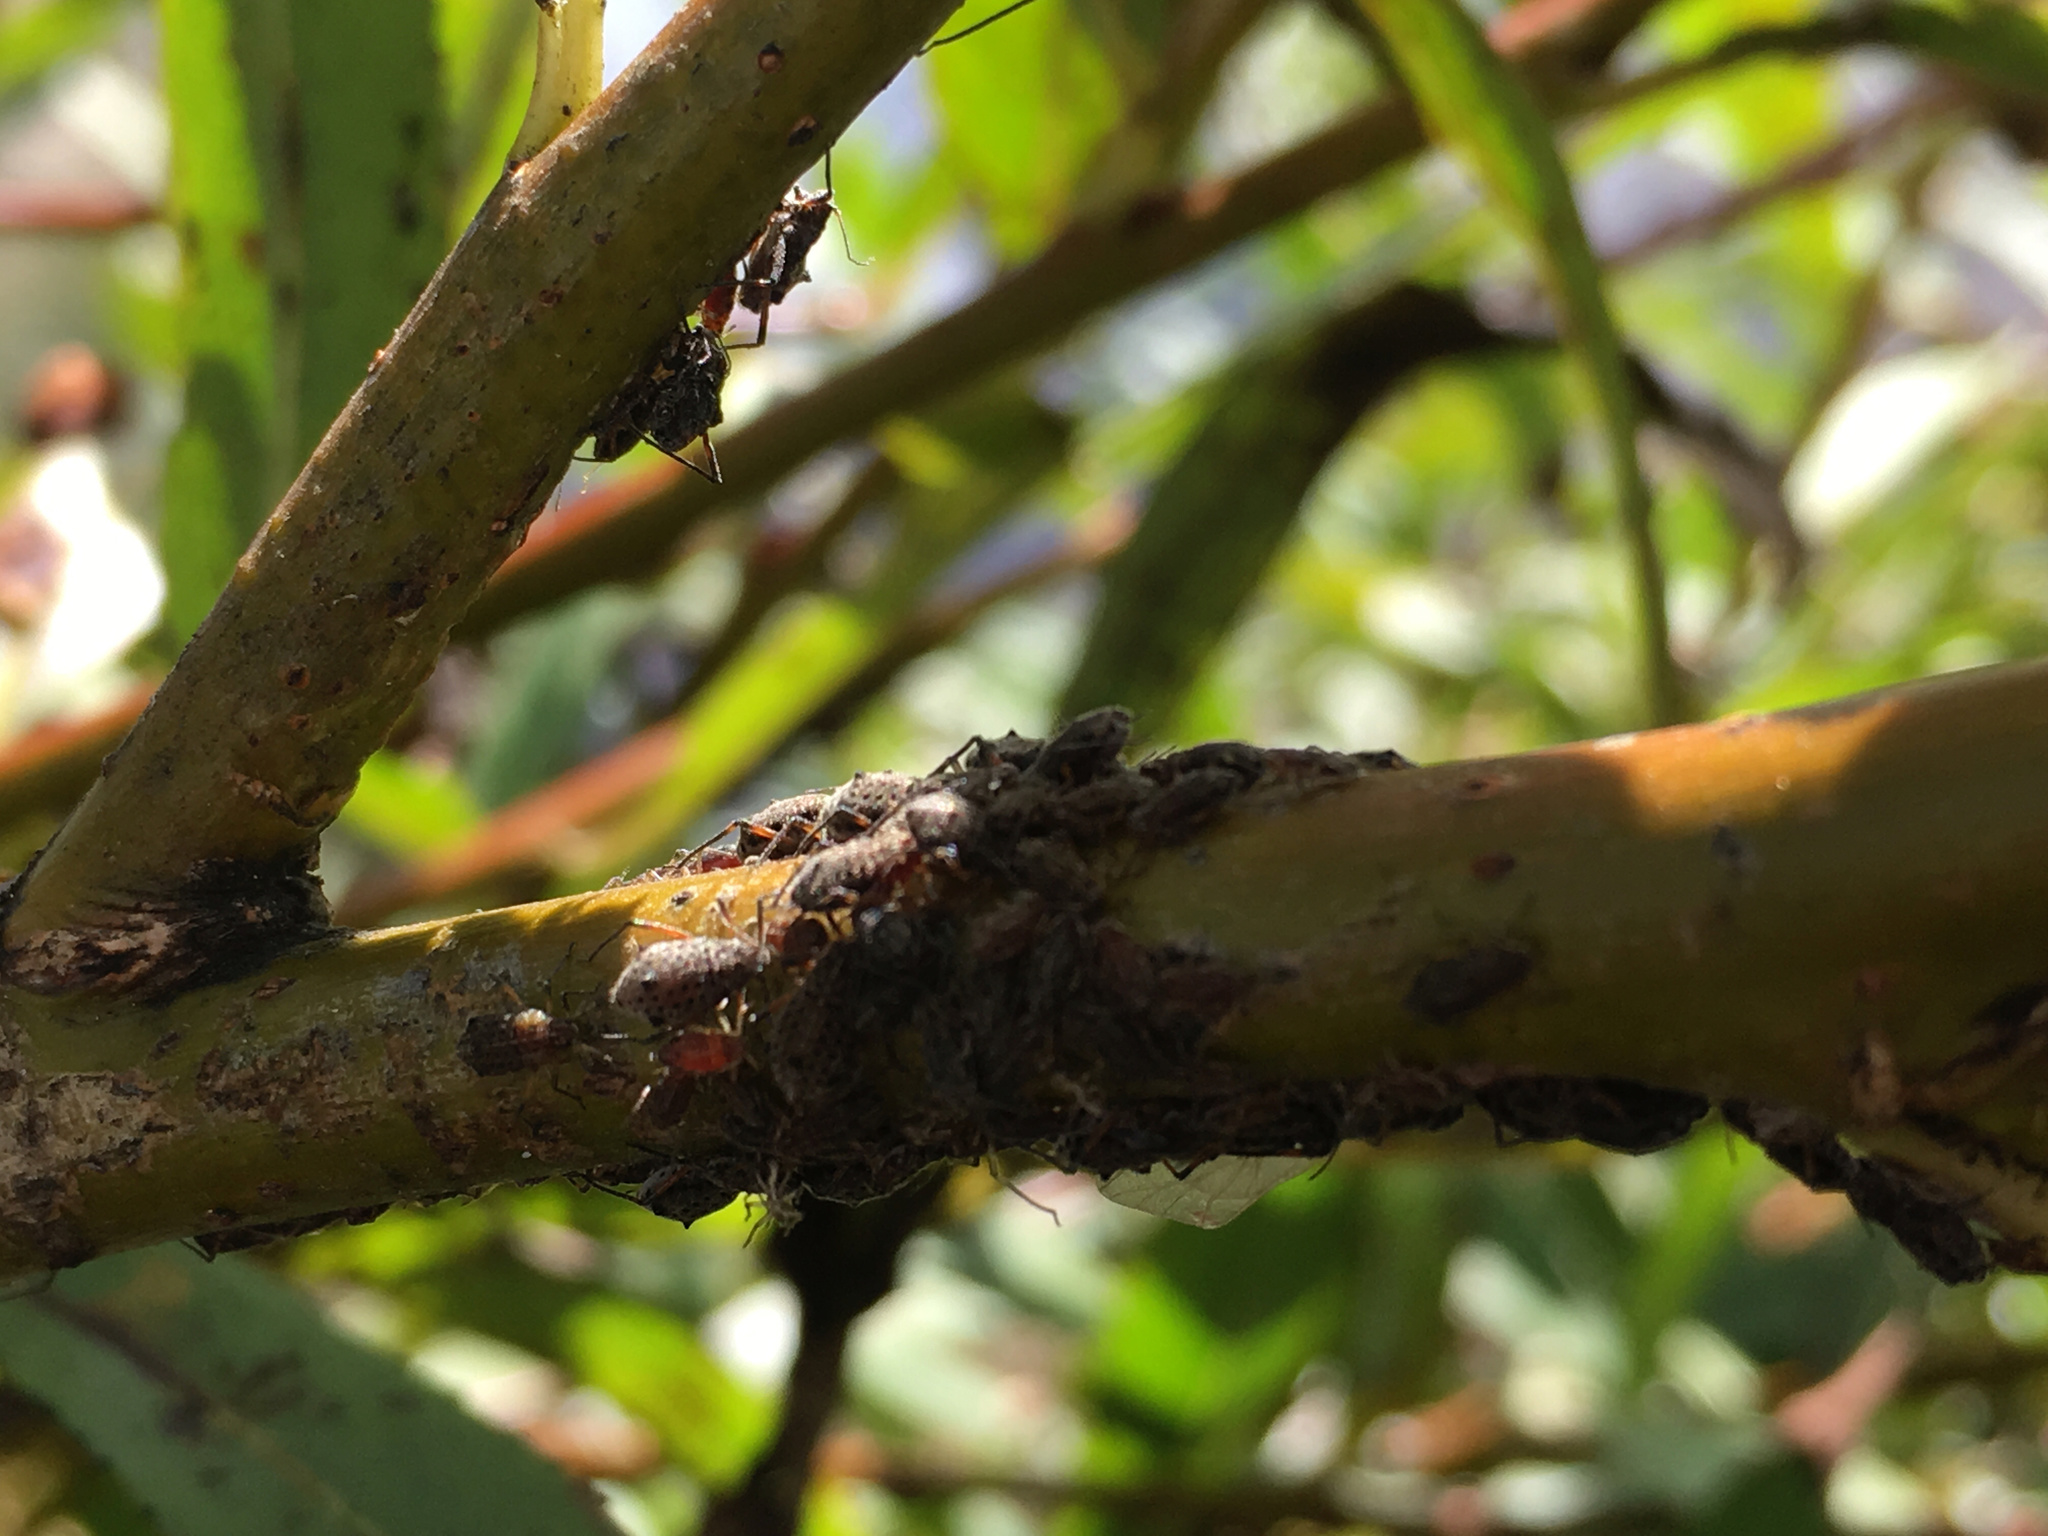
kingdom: Animalia
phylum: Arthropoda
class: Insecta
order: Hemiptera
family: Aphididae
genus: Tuberolachnus
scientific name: Tuberolachnus salignus
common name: Giant willow aphid
